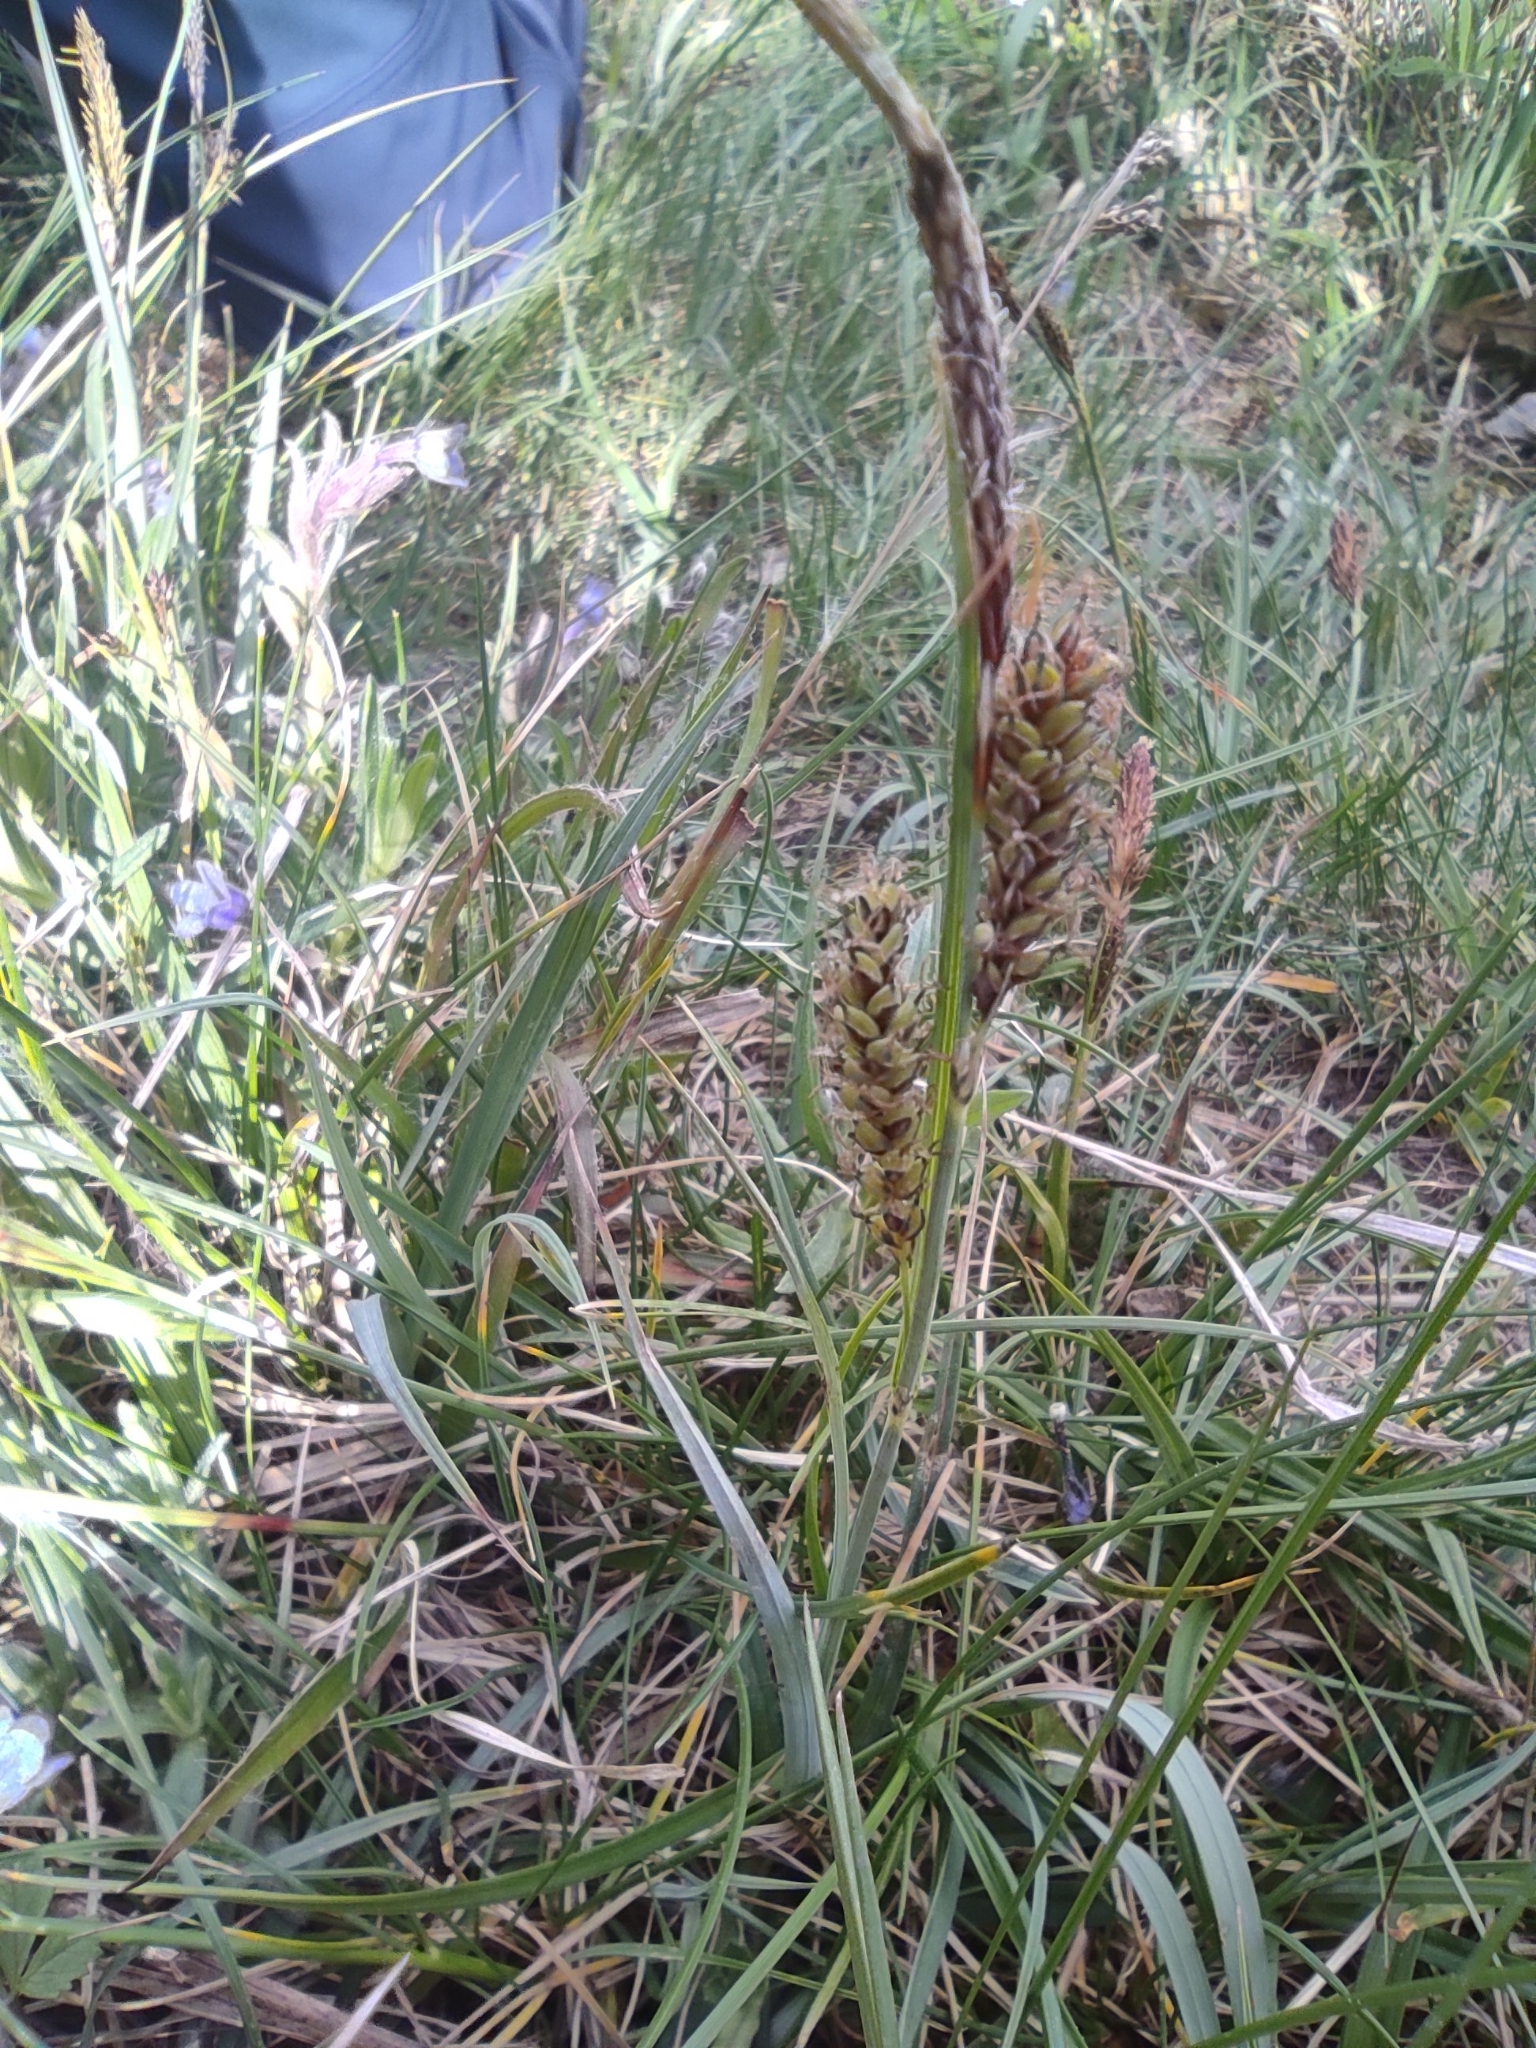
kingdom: Plantae
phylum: Tracheophyta
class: Liliopsida
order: Poales
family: Cyperaceae
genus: Carex
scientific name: Carex flacca
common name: Glaucous sedge
